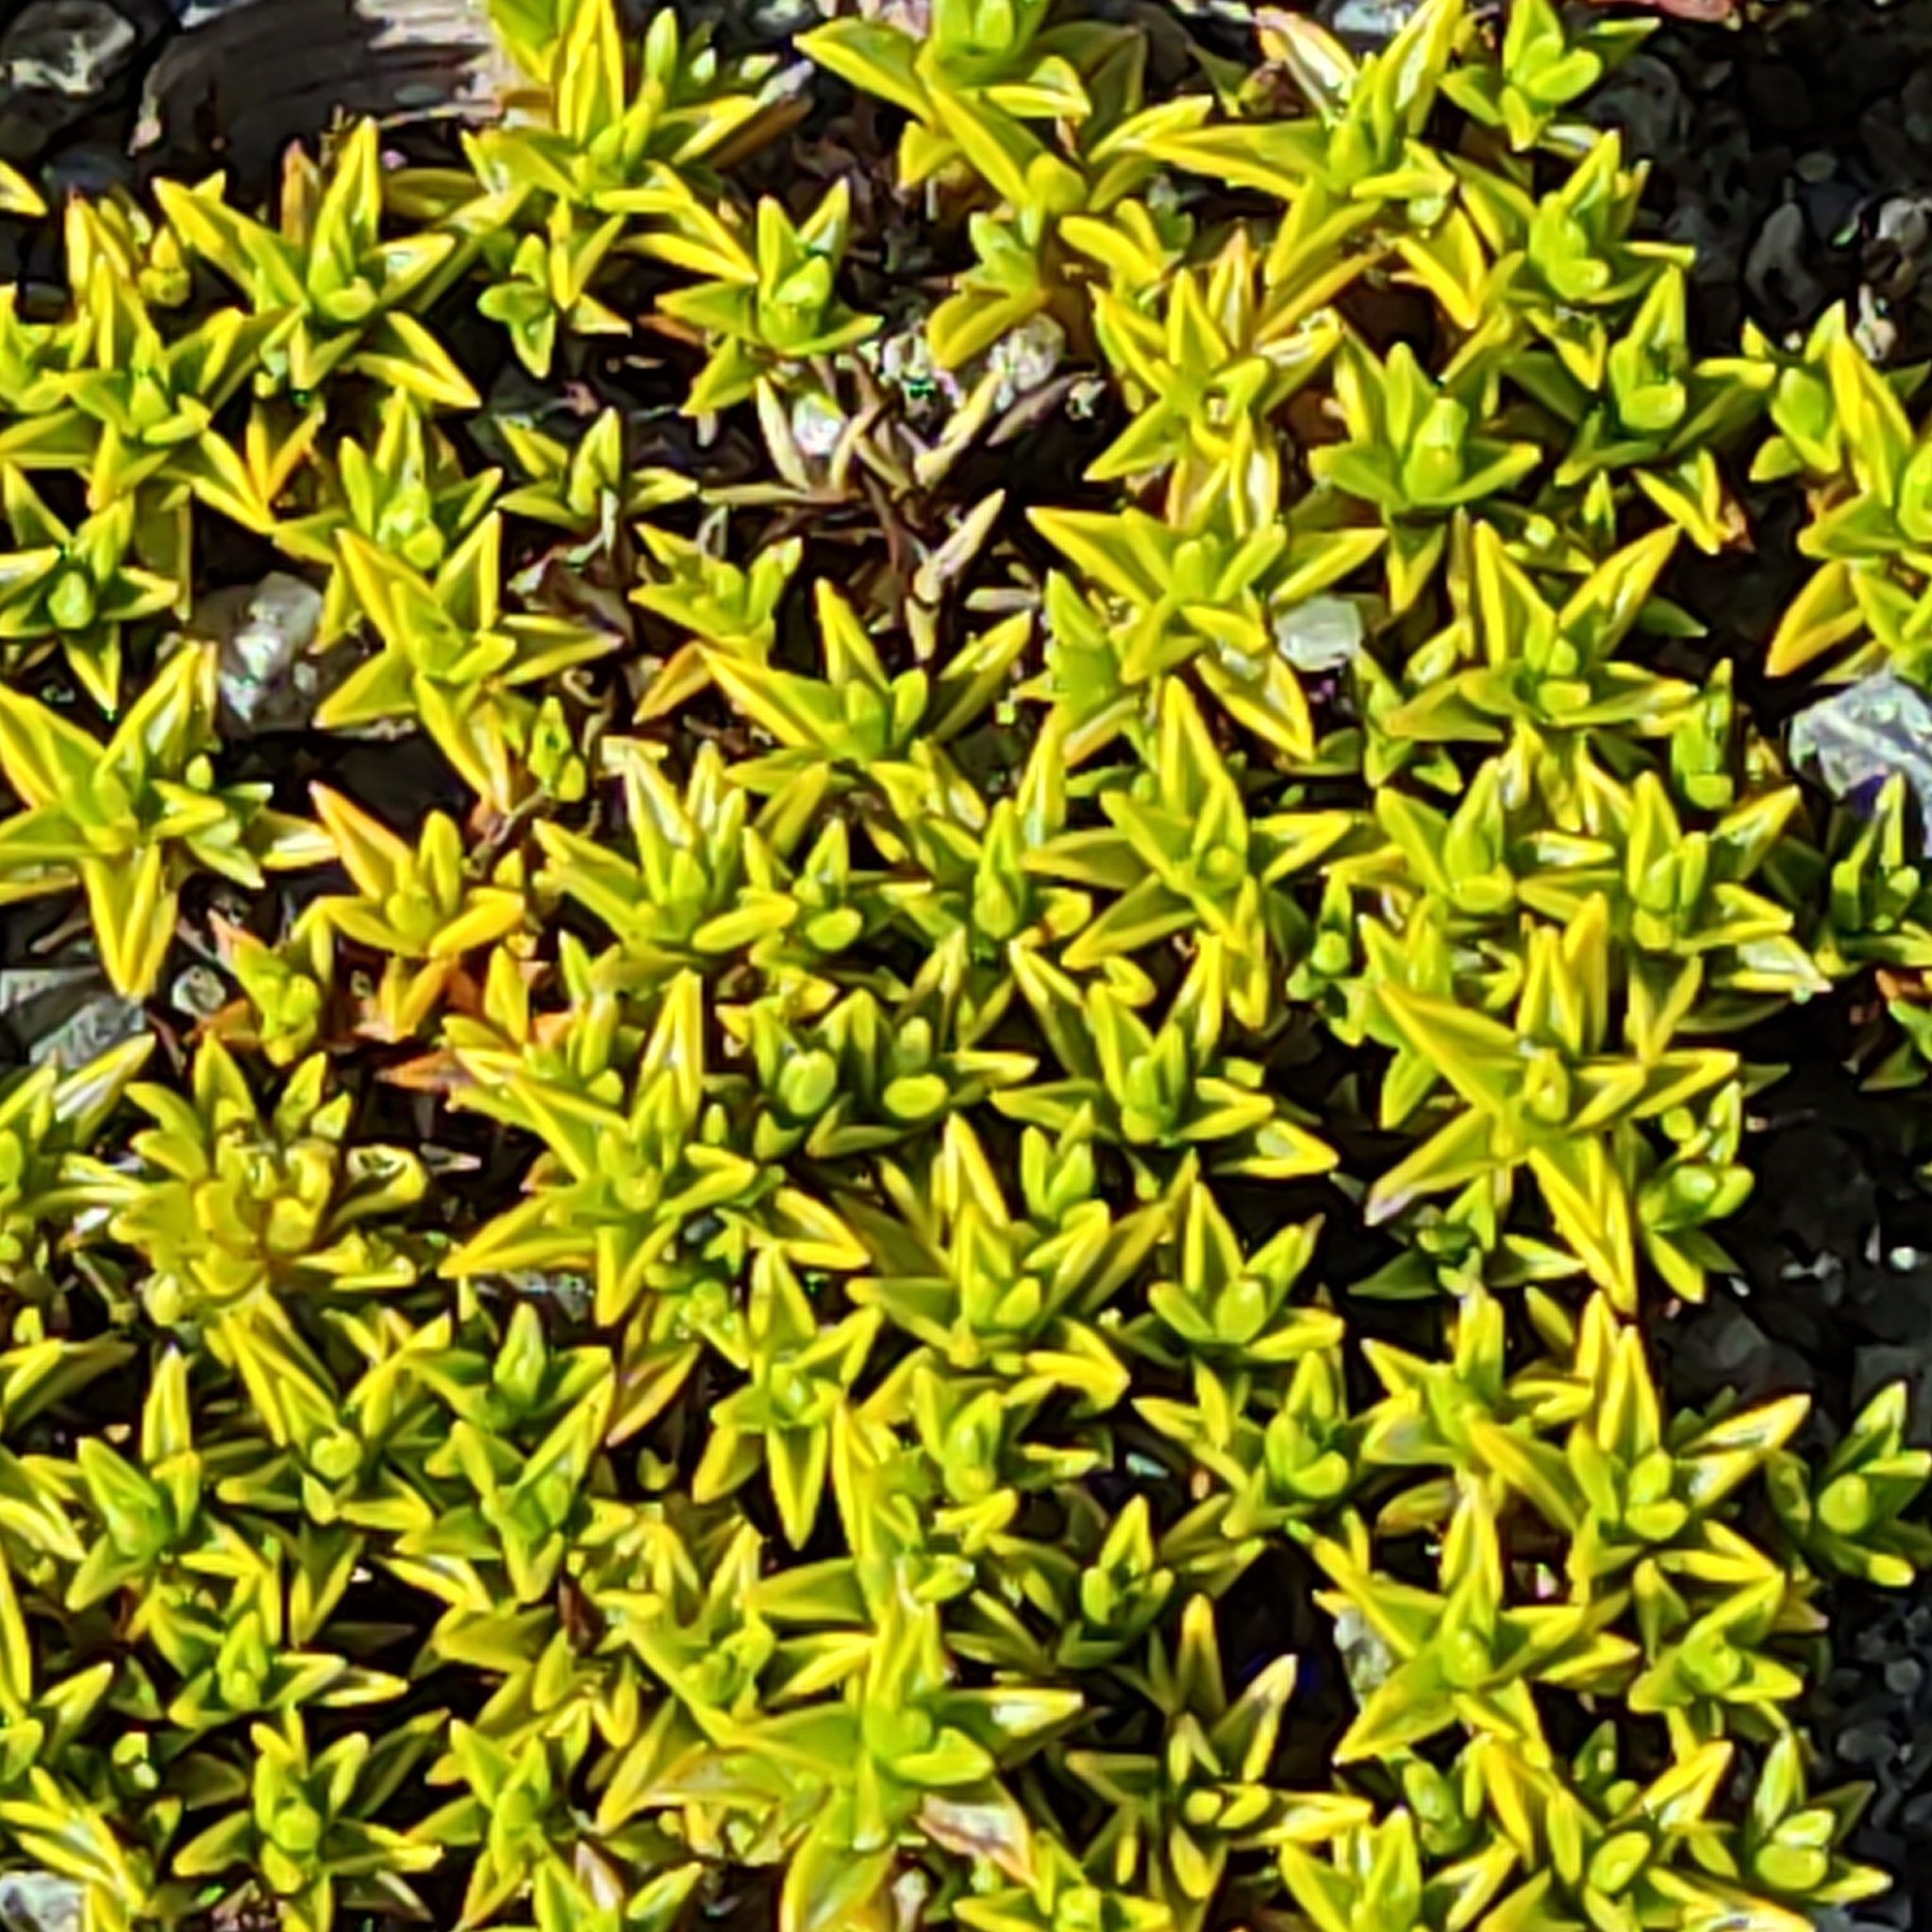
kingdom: Plantae
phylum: Tracheophyta
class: Magnoliopsida
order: Asterales
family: Asteraceae
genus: Raoulia
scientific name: Raoulia tenuicaulis
